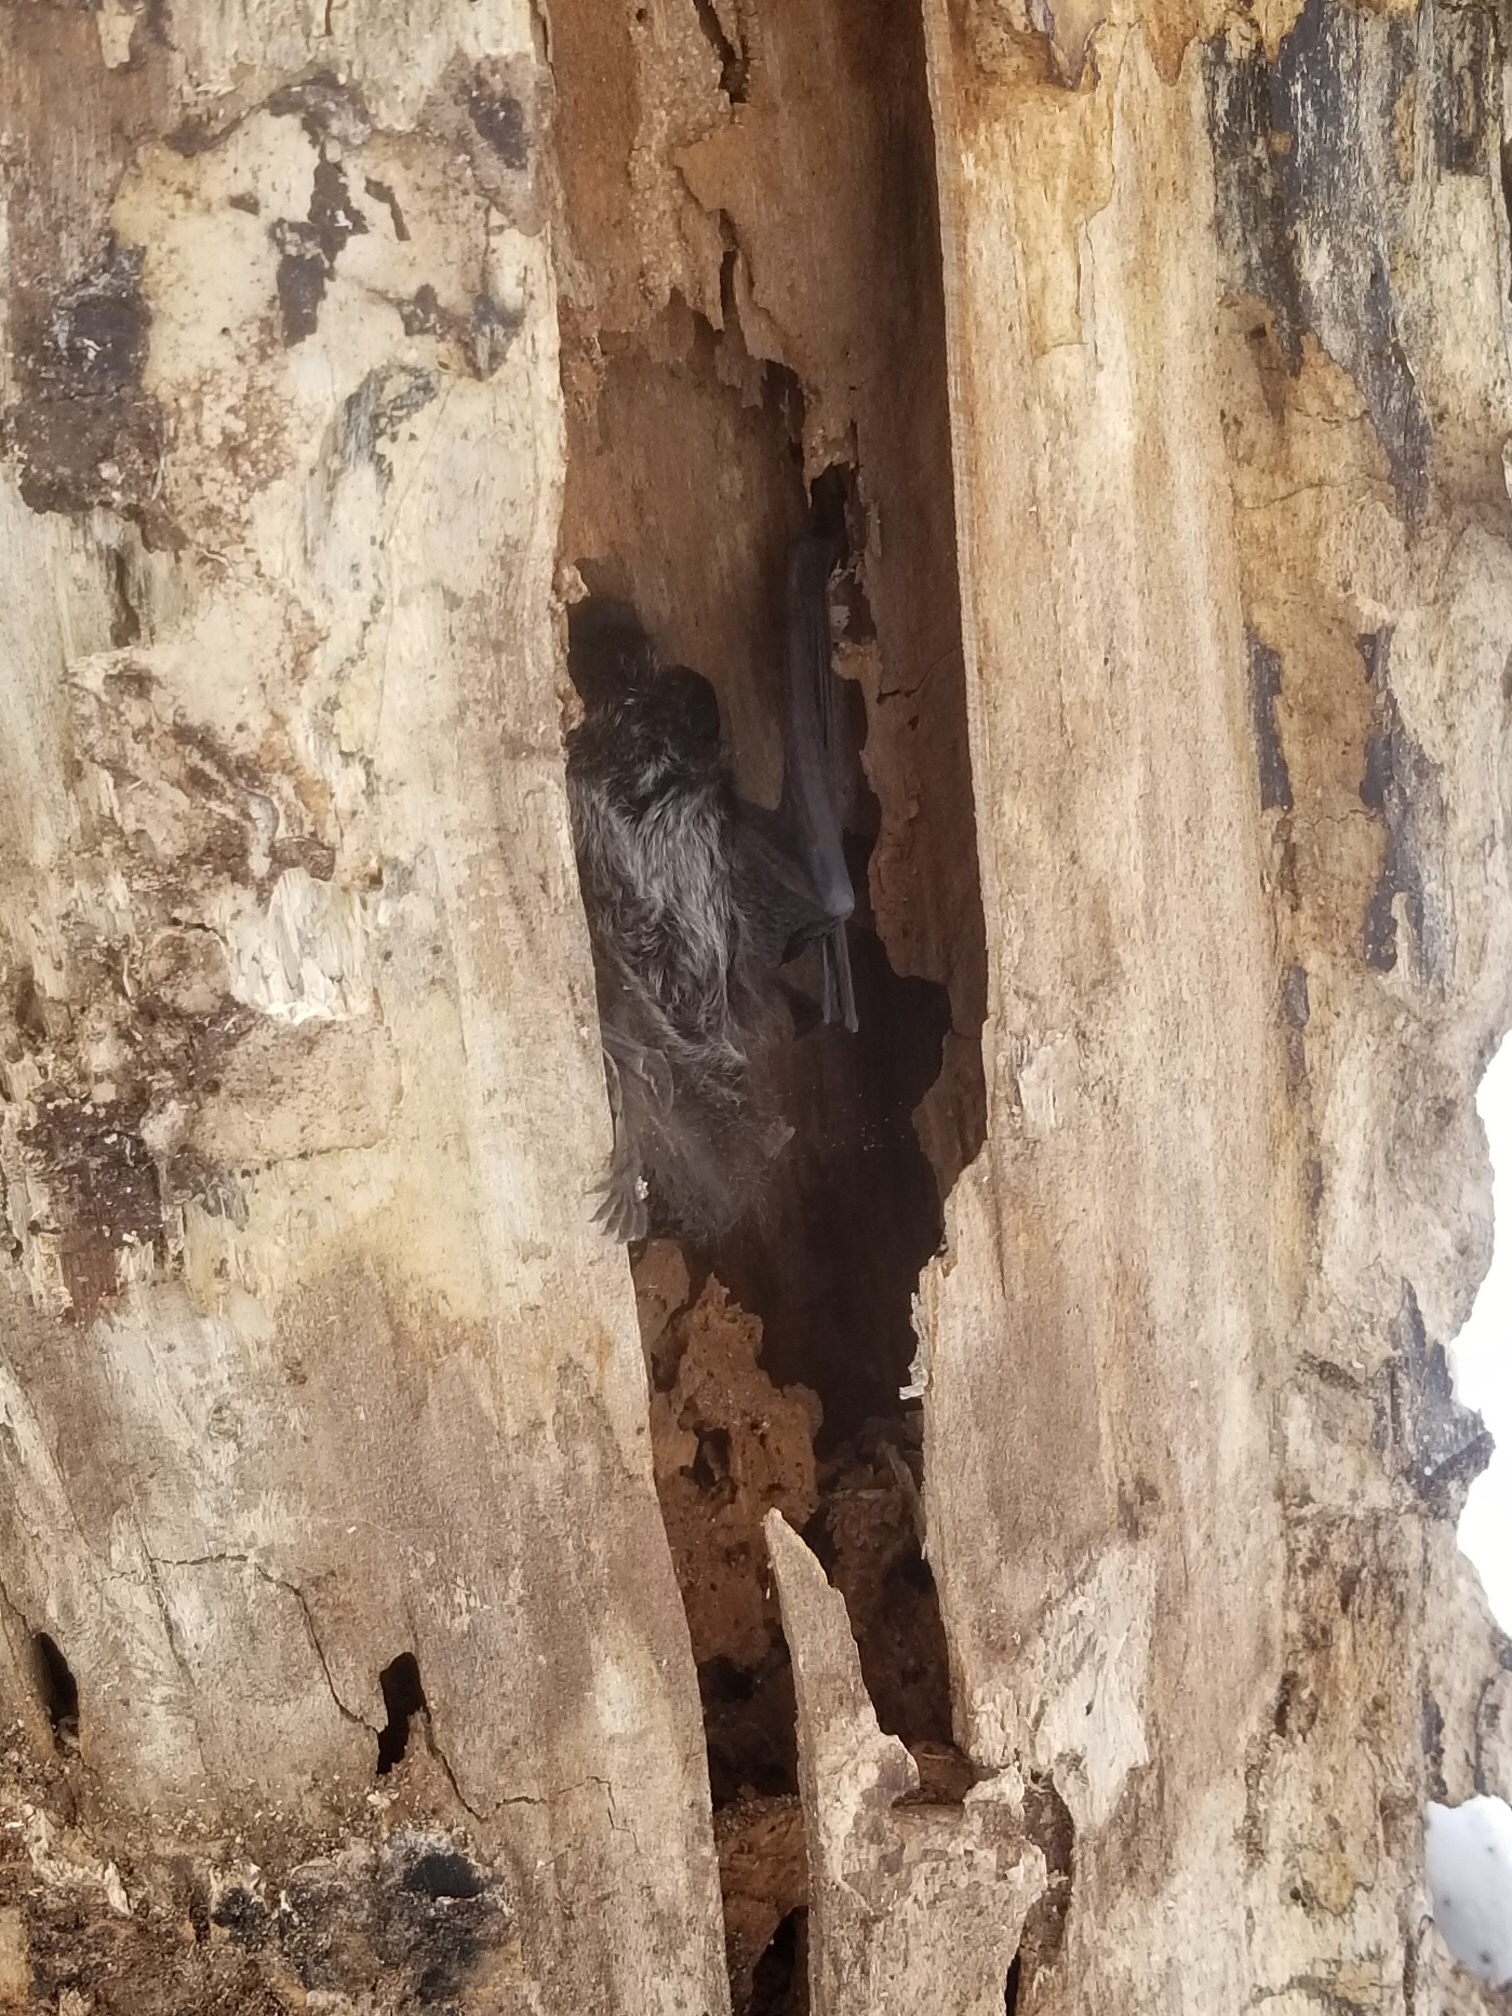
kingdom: Animalia
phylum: Chordata
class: Mammalia
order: Chiroptera
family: Vespertilionidae
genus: Lasionycteris
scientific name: Lasionycteris noctivagans
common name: Silver-haired bat
